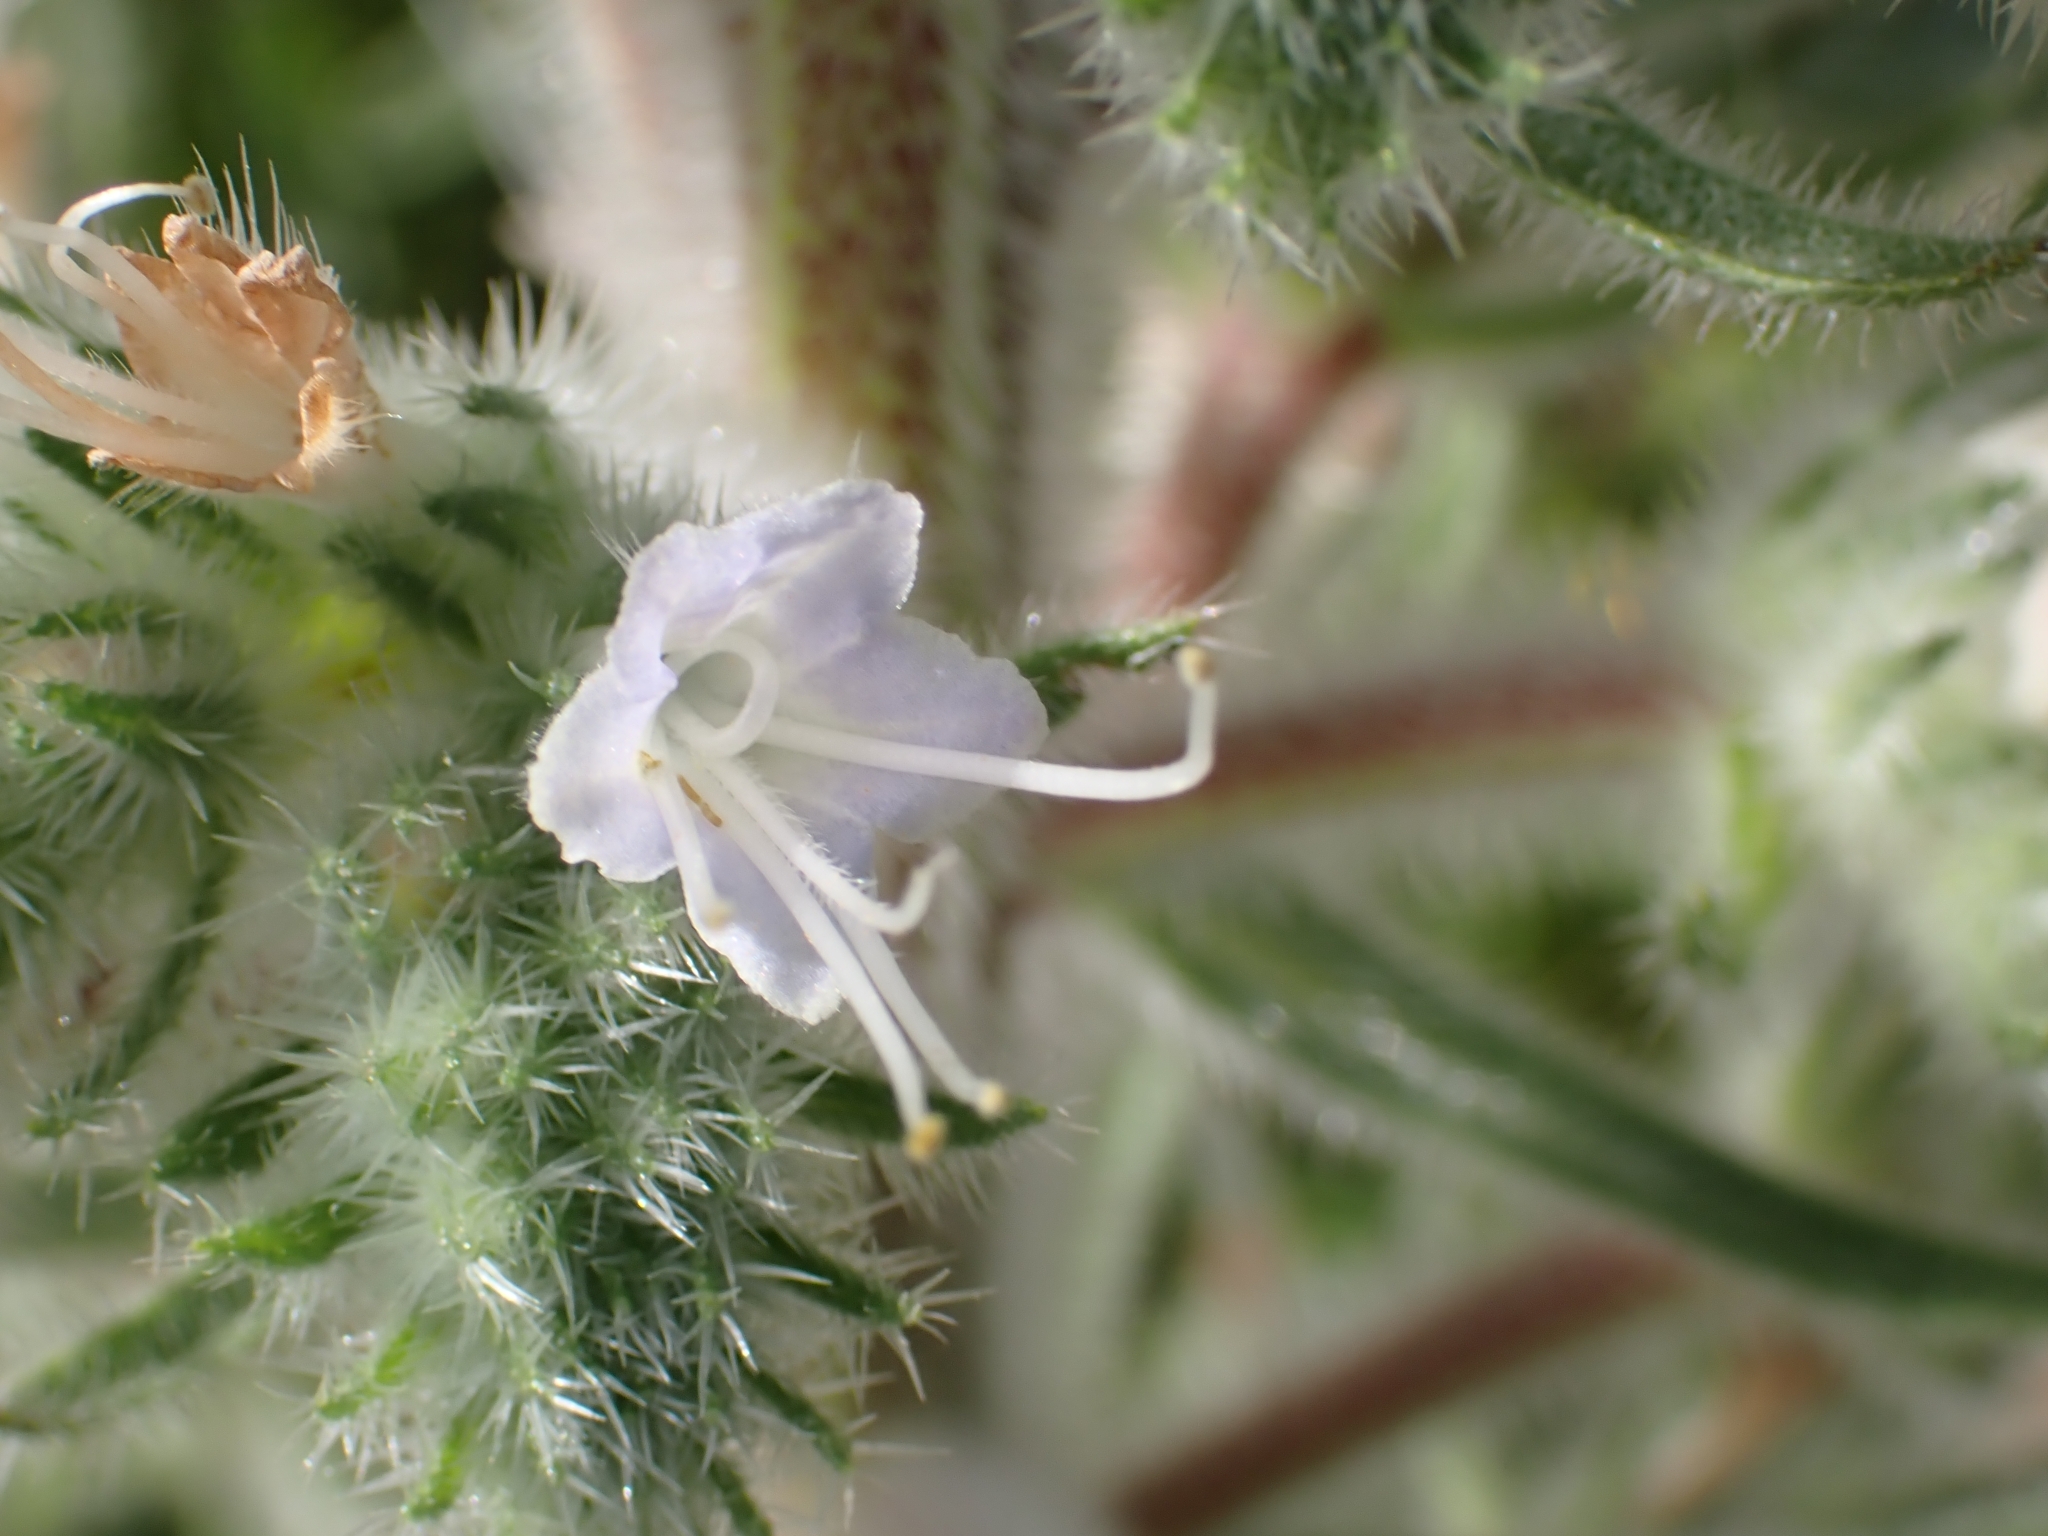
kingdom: Plantae
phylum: Tracheophyta
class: Magnoliopsida
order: Boraginales
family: Boraginaceae
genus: Echium
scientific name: Echium italicum
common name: Italian viper's bugloss
